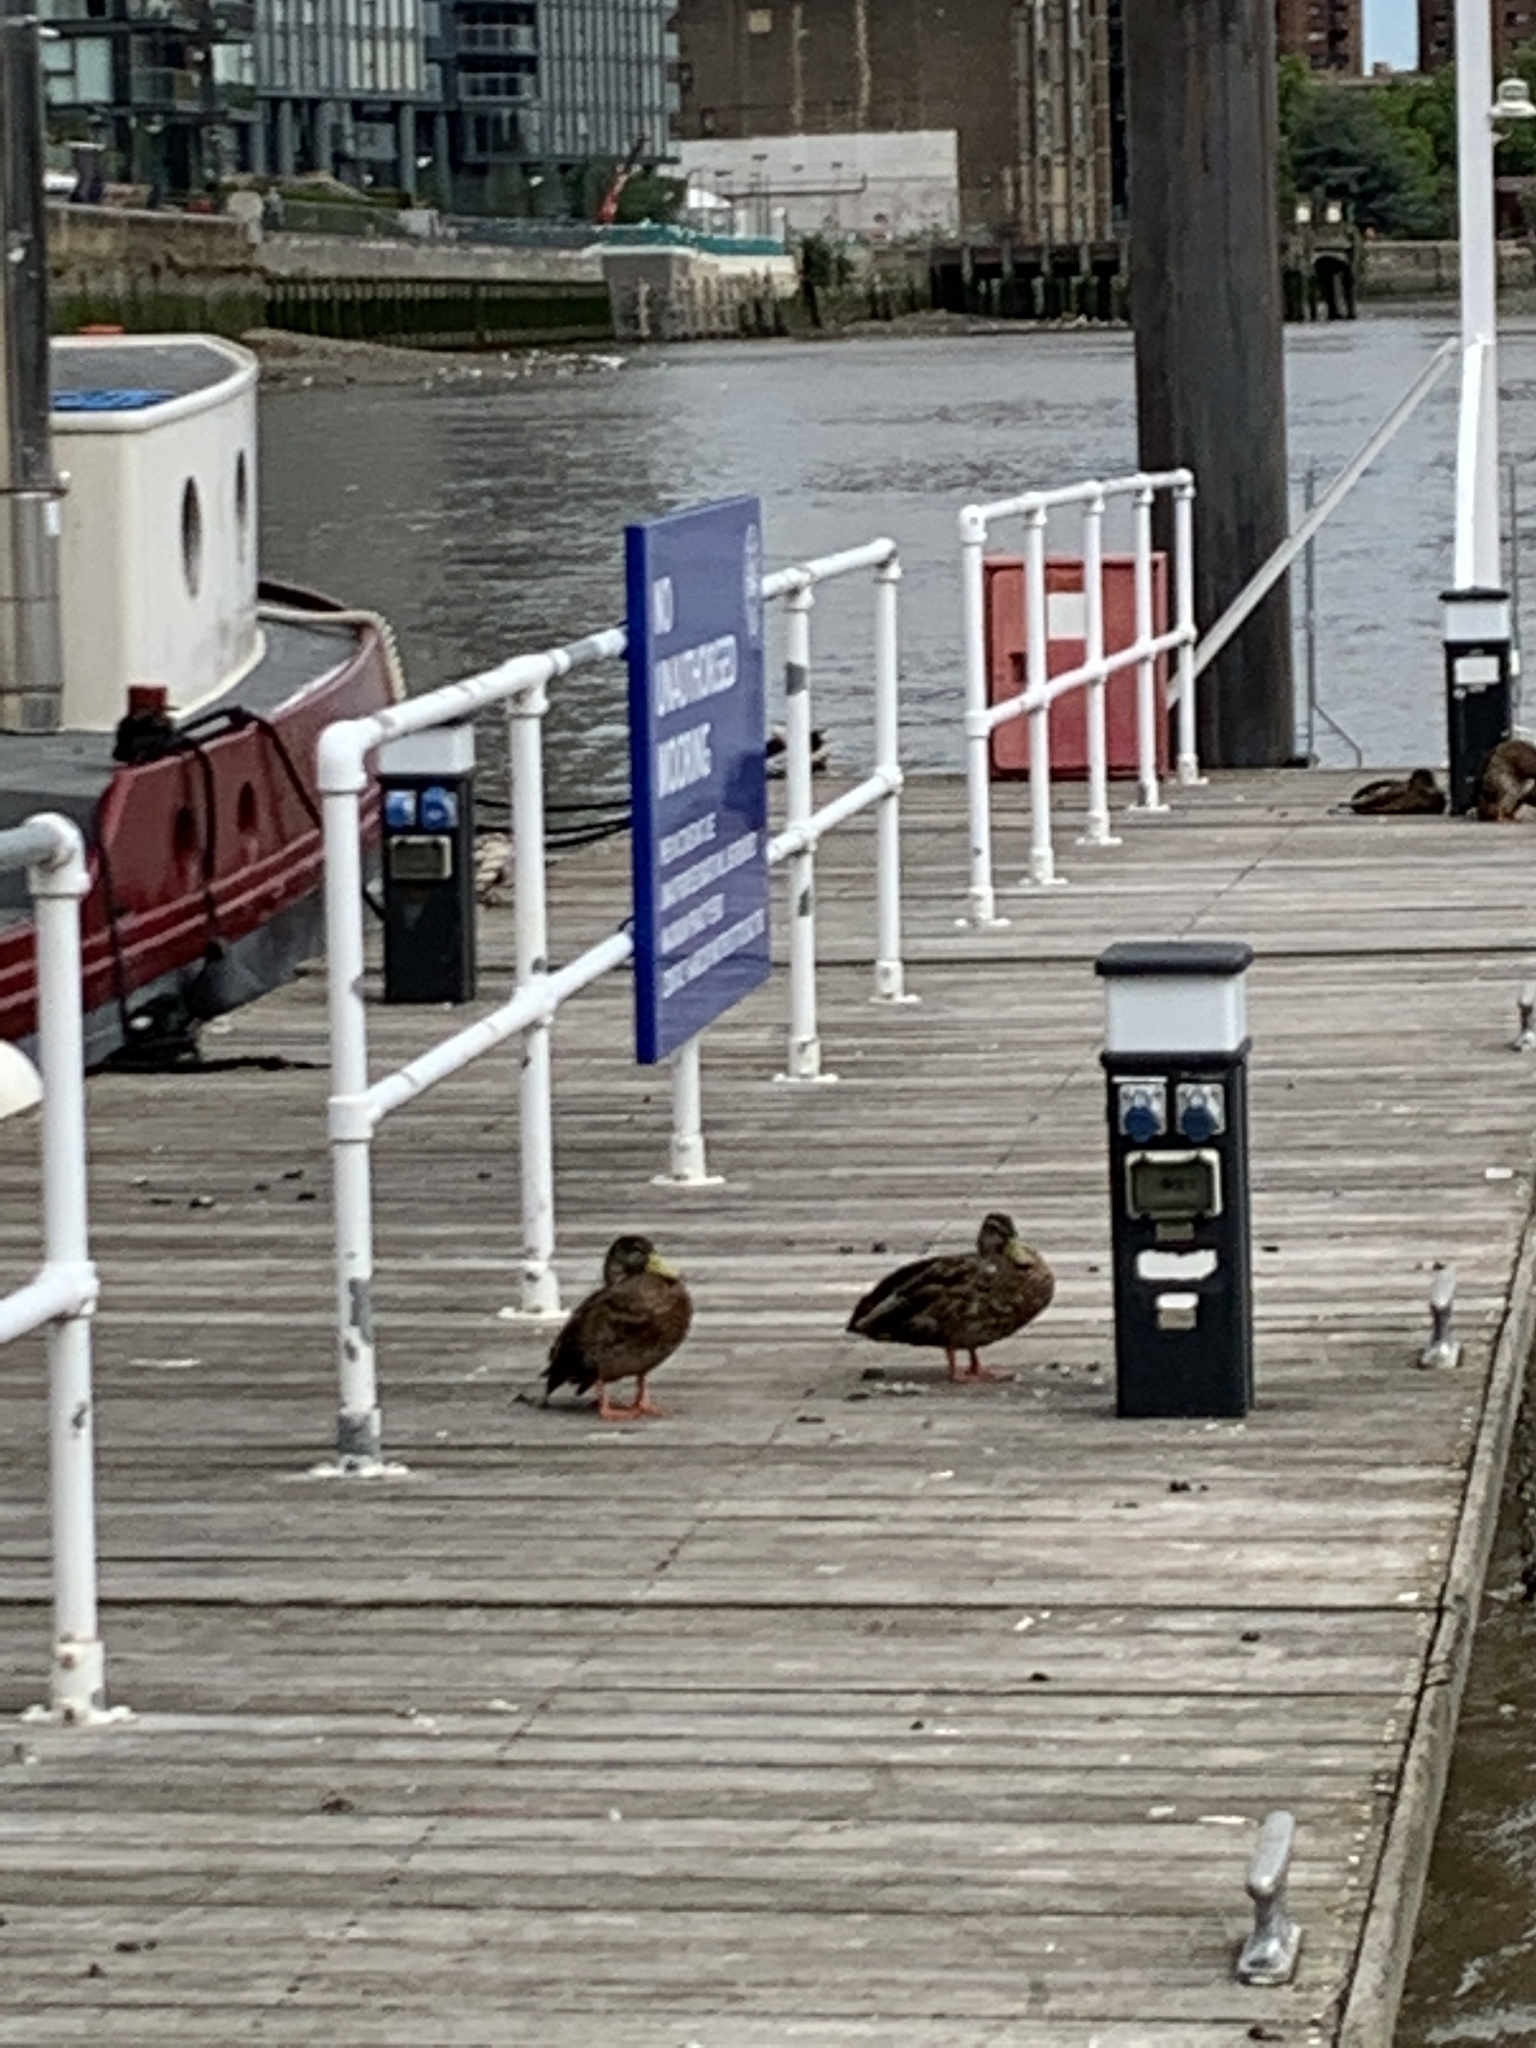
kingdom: Animalia
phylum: Chordata
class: Aves
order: Anseriformes
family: Anatidae
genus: Anas
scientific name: Anas platyrhynchos
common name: Mallard
